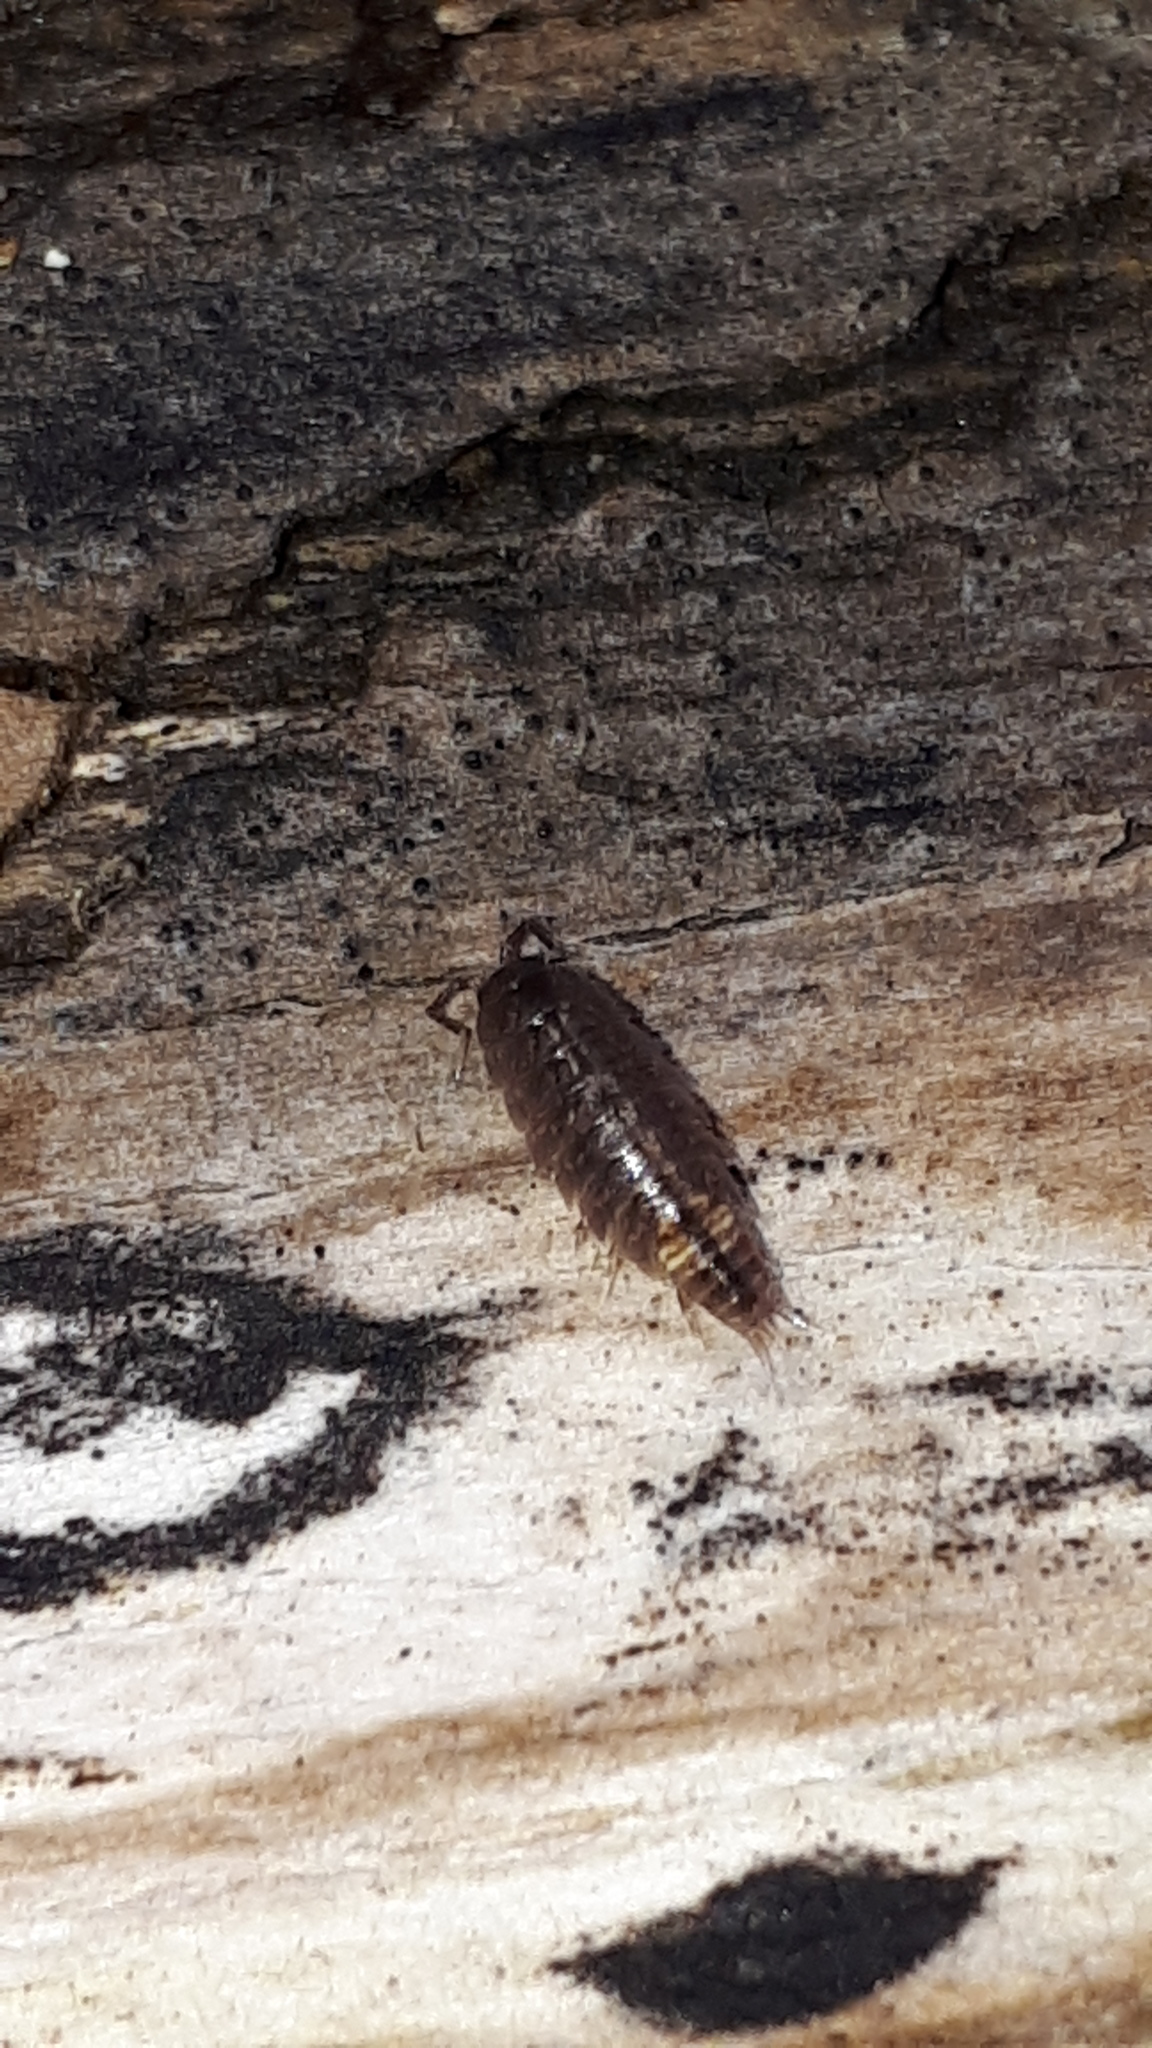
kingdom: Animalia
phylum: Arthropoda
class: Malacostraca
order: Isopoda
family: Trichoniscidae
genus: Hyloniscus
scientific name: Hyloniscus riparius
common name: Isopod
